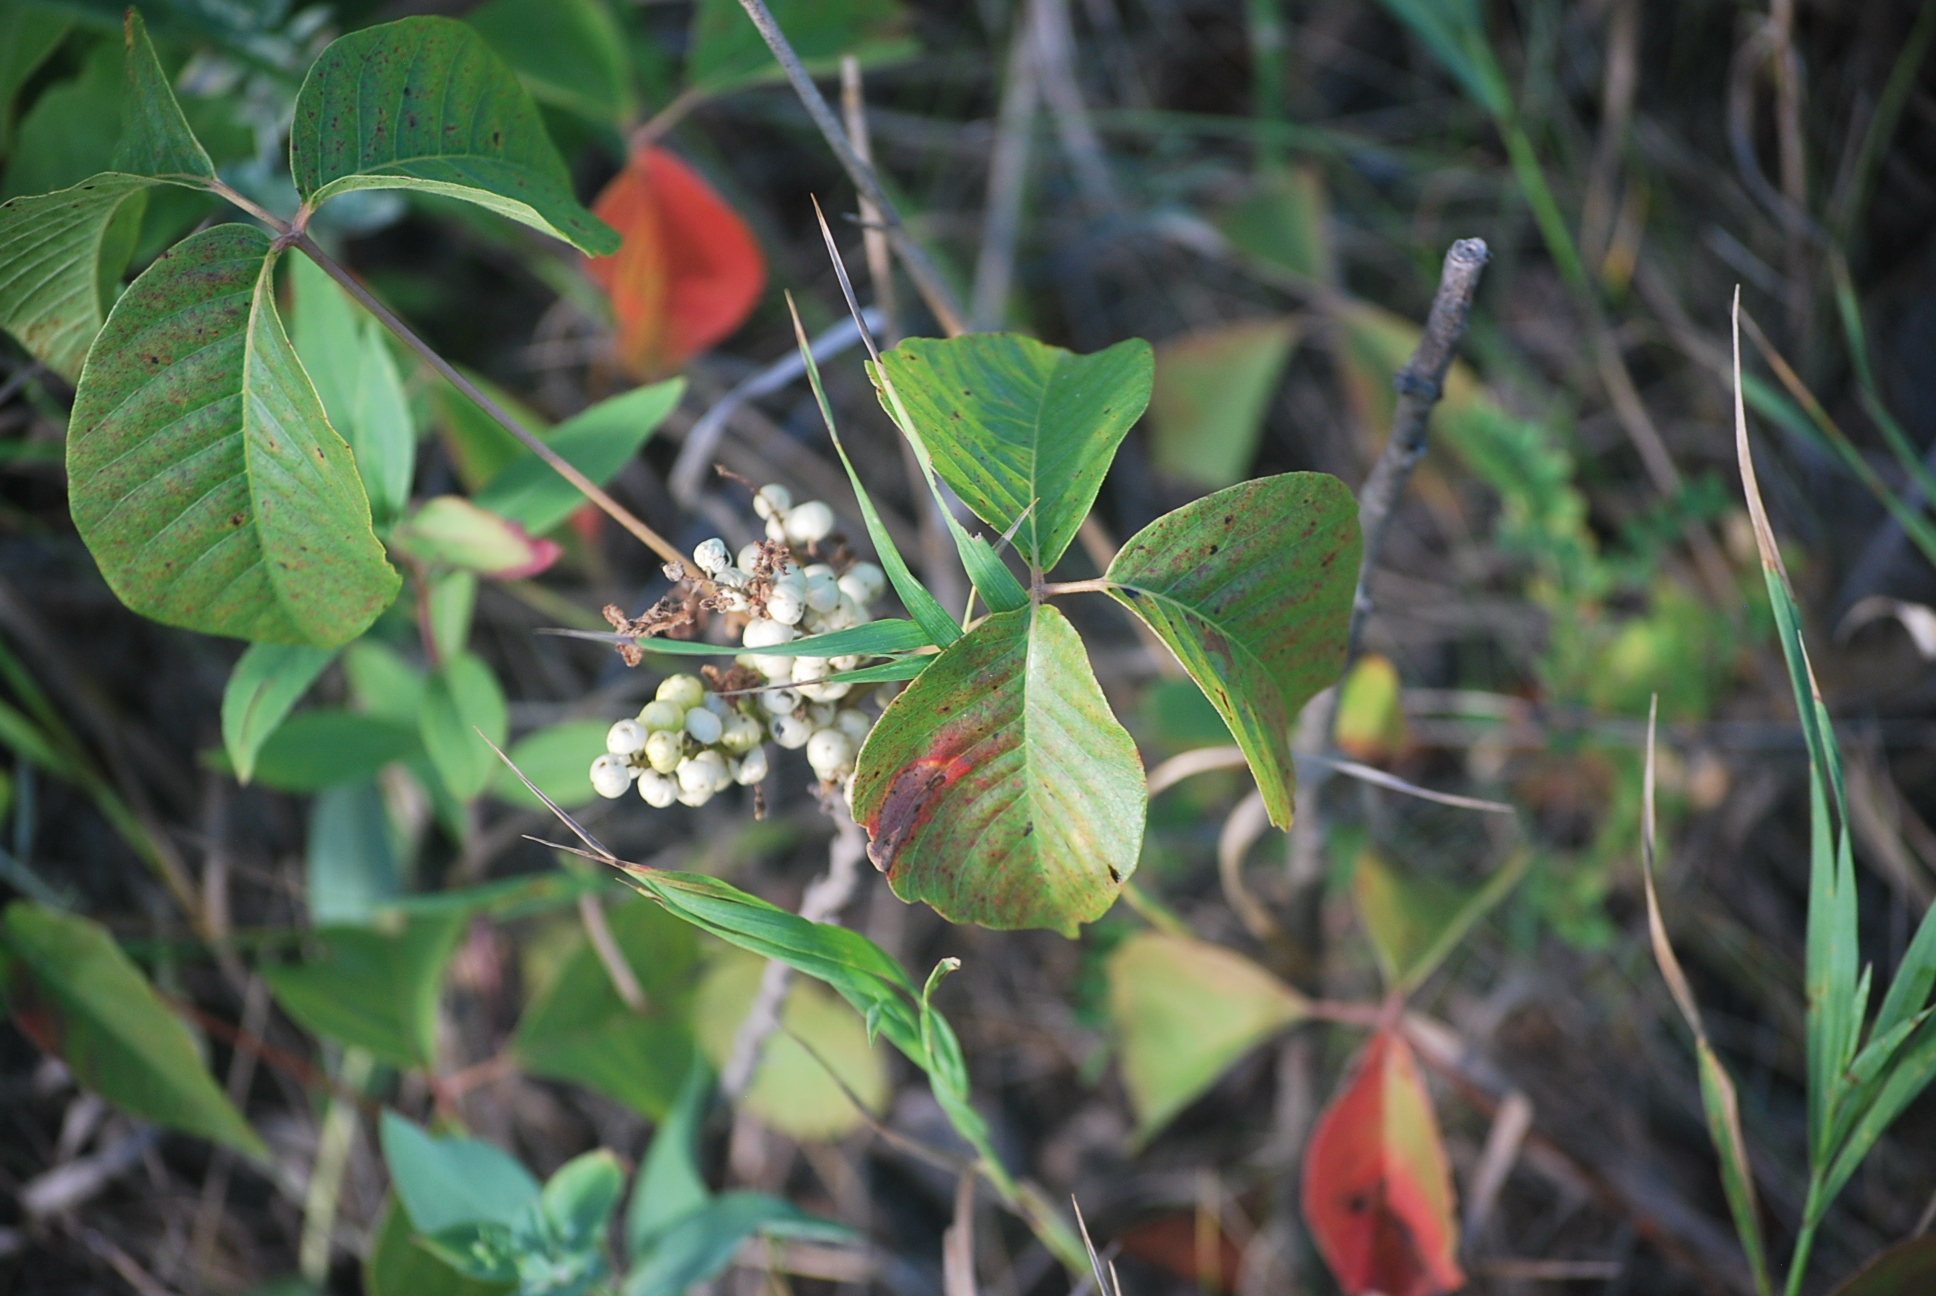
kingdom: Plantae
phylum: Tracheophyta
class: Magnoliopsida
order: Sapindales
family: Anacardiaceae
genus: Toxicodendron
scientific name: Toxicodendron rydbergii
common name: Rydberg's poison-ivy
